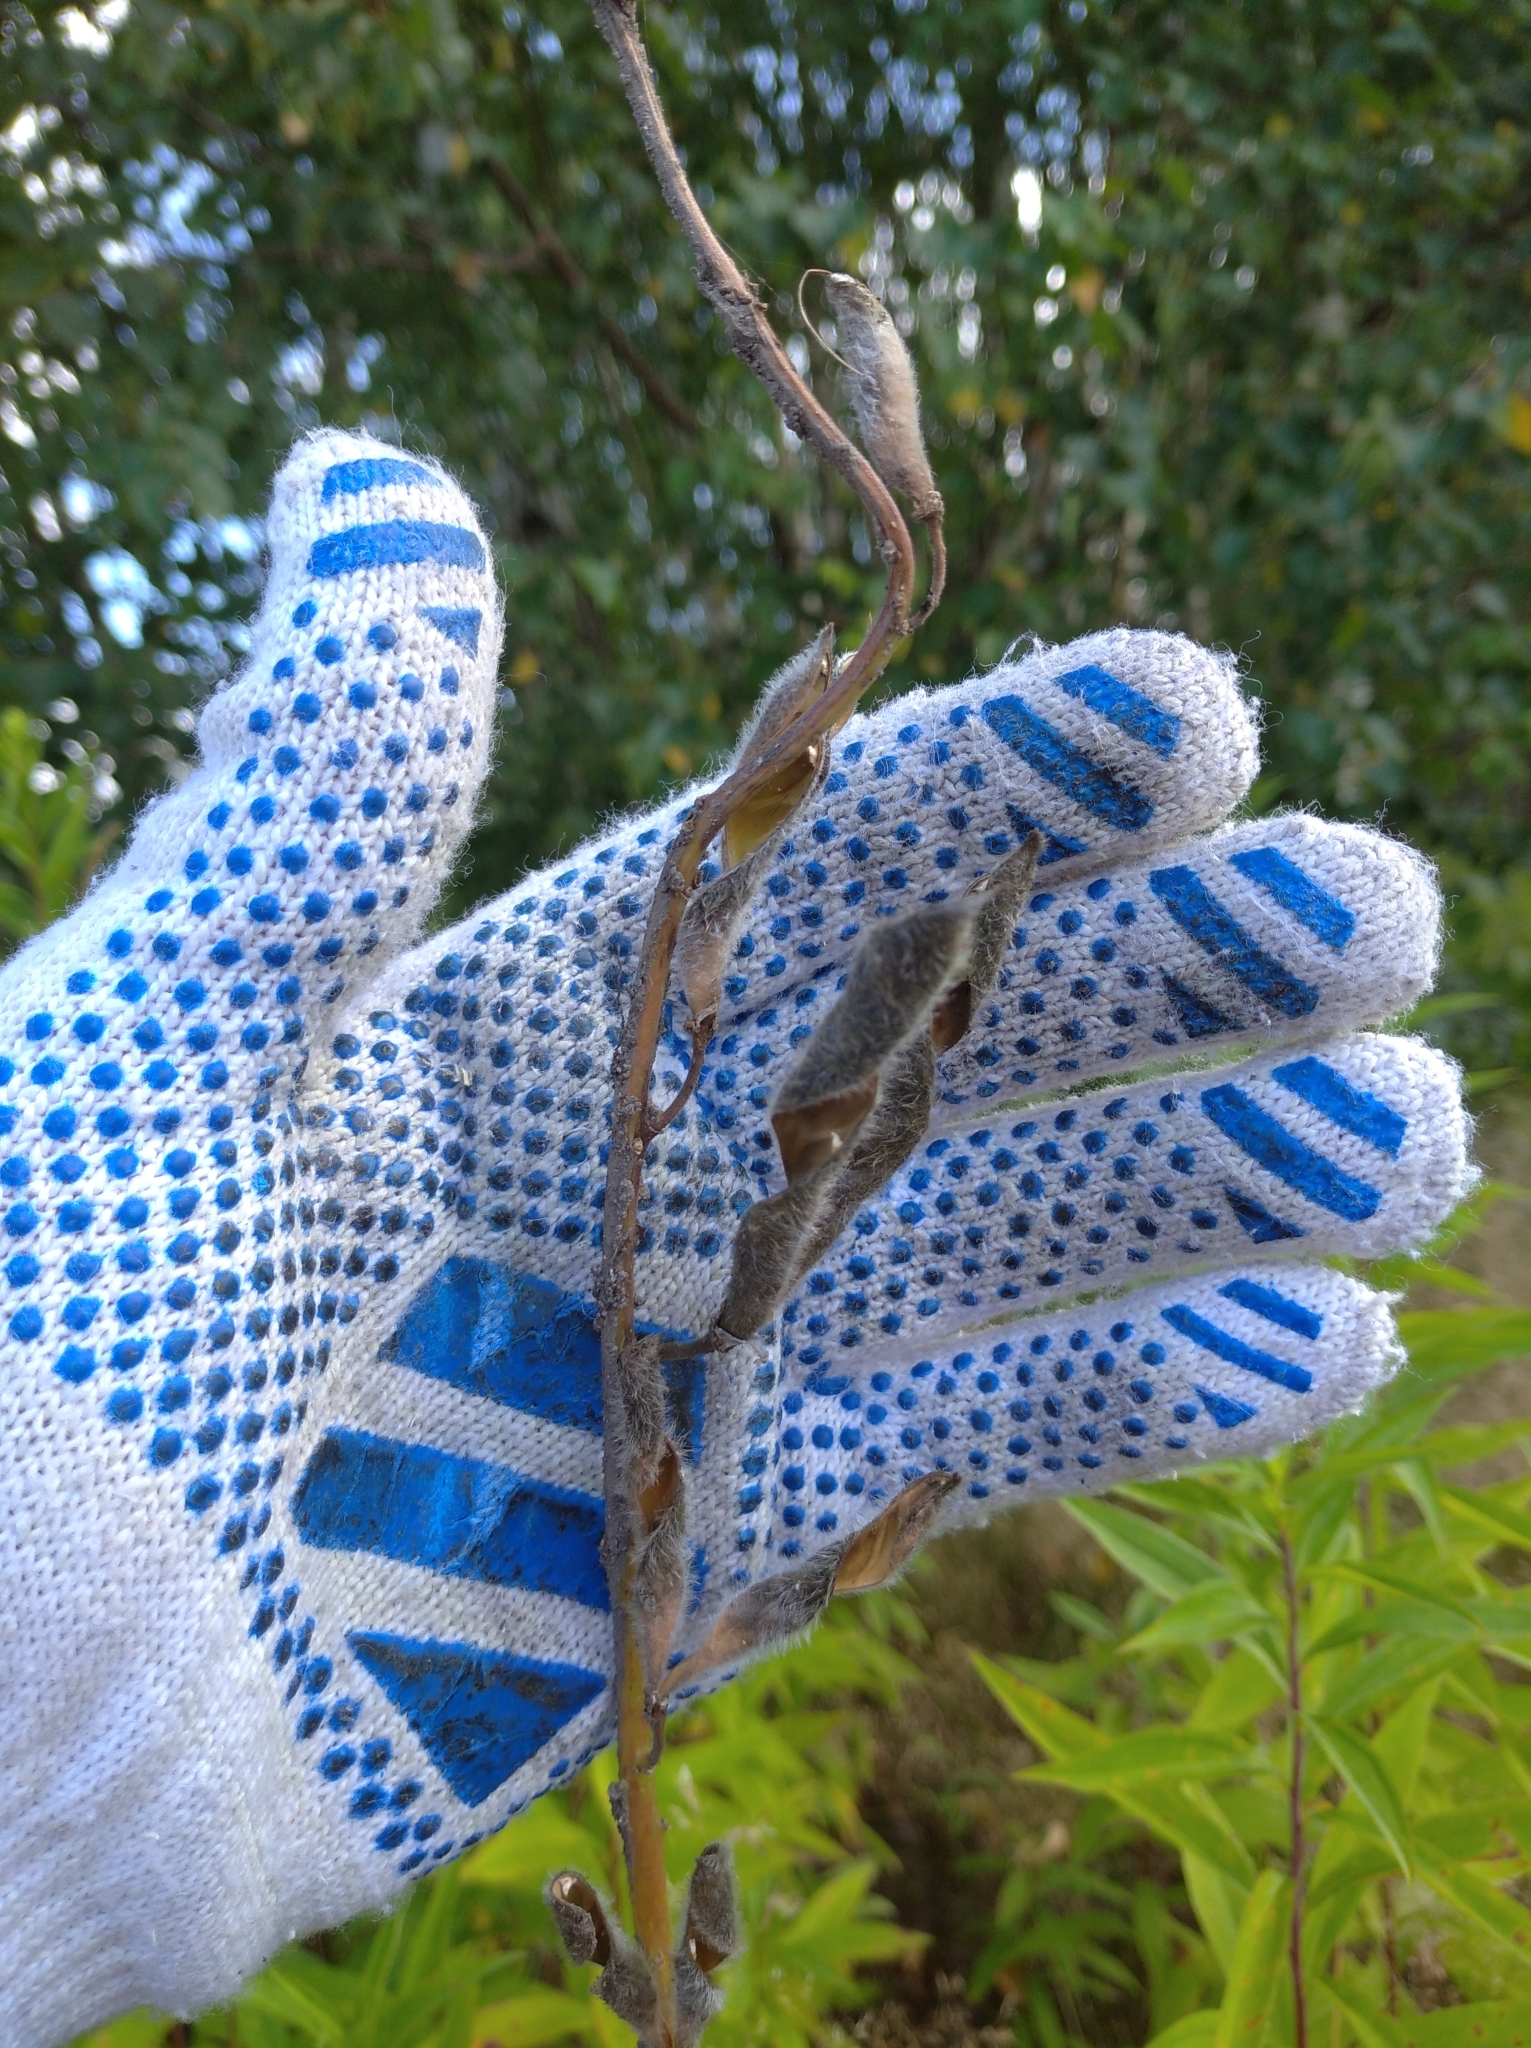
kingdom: Plantae
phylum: Tracheophyta
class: Magnoliopsida
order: Fabales
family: Fabaceae
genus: Lupinus
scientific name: Lupinus polyphyllus
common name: Garden lupin
